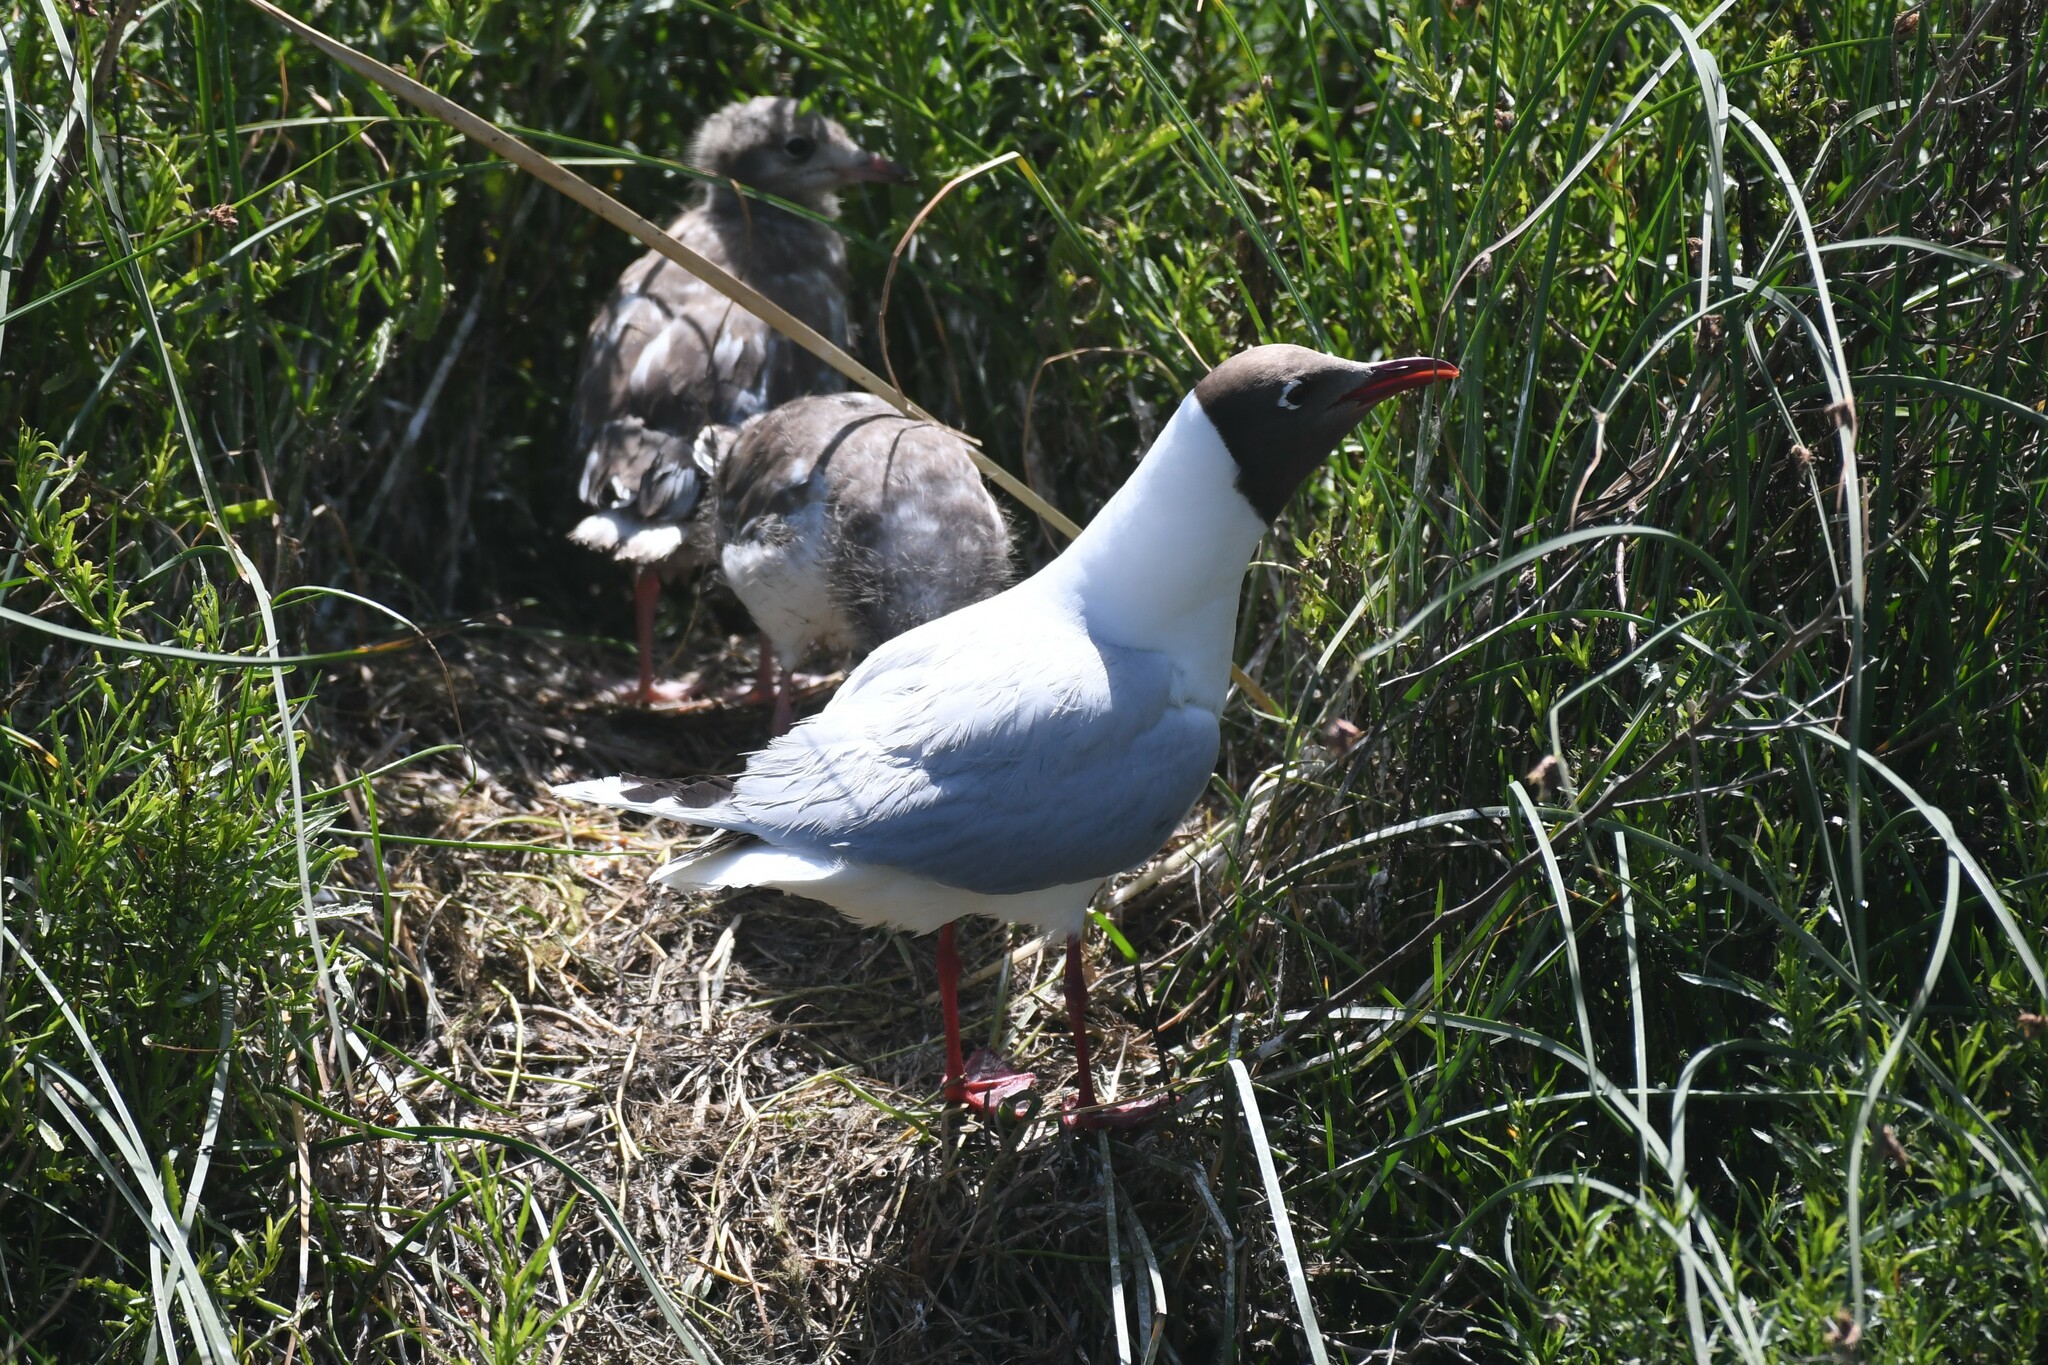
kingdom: Animalia
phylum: Chordata
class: Aves
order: Charadriiformes
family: Laridae
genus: Chroicocephalus
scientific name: Chroicocephalus maculipennis
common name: Brown-hooded gull
